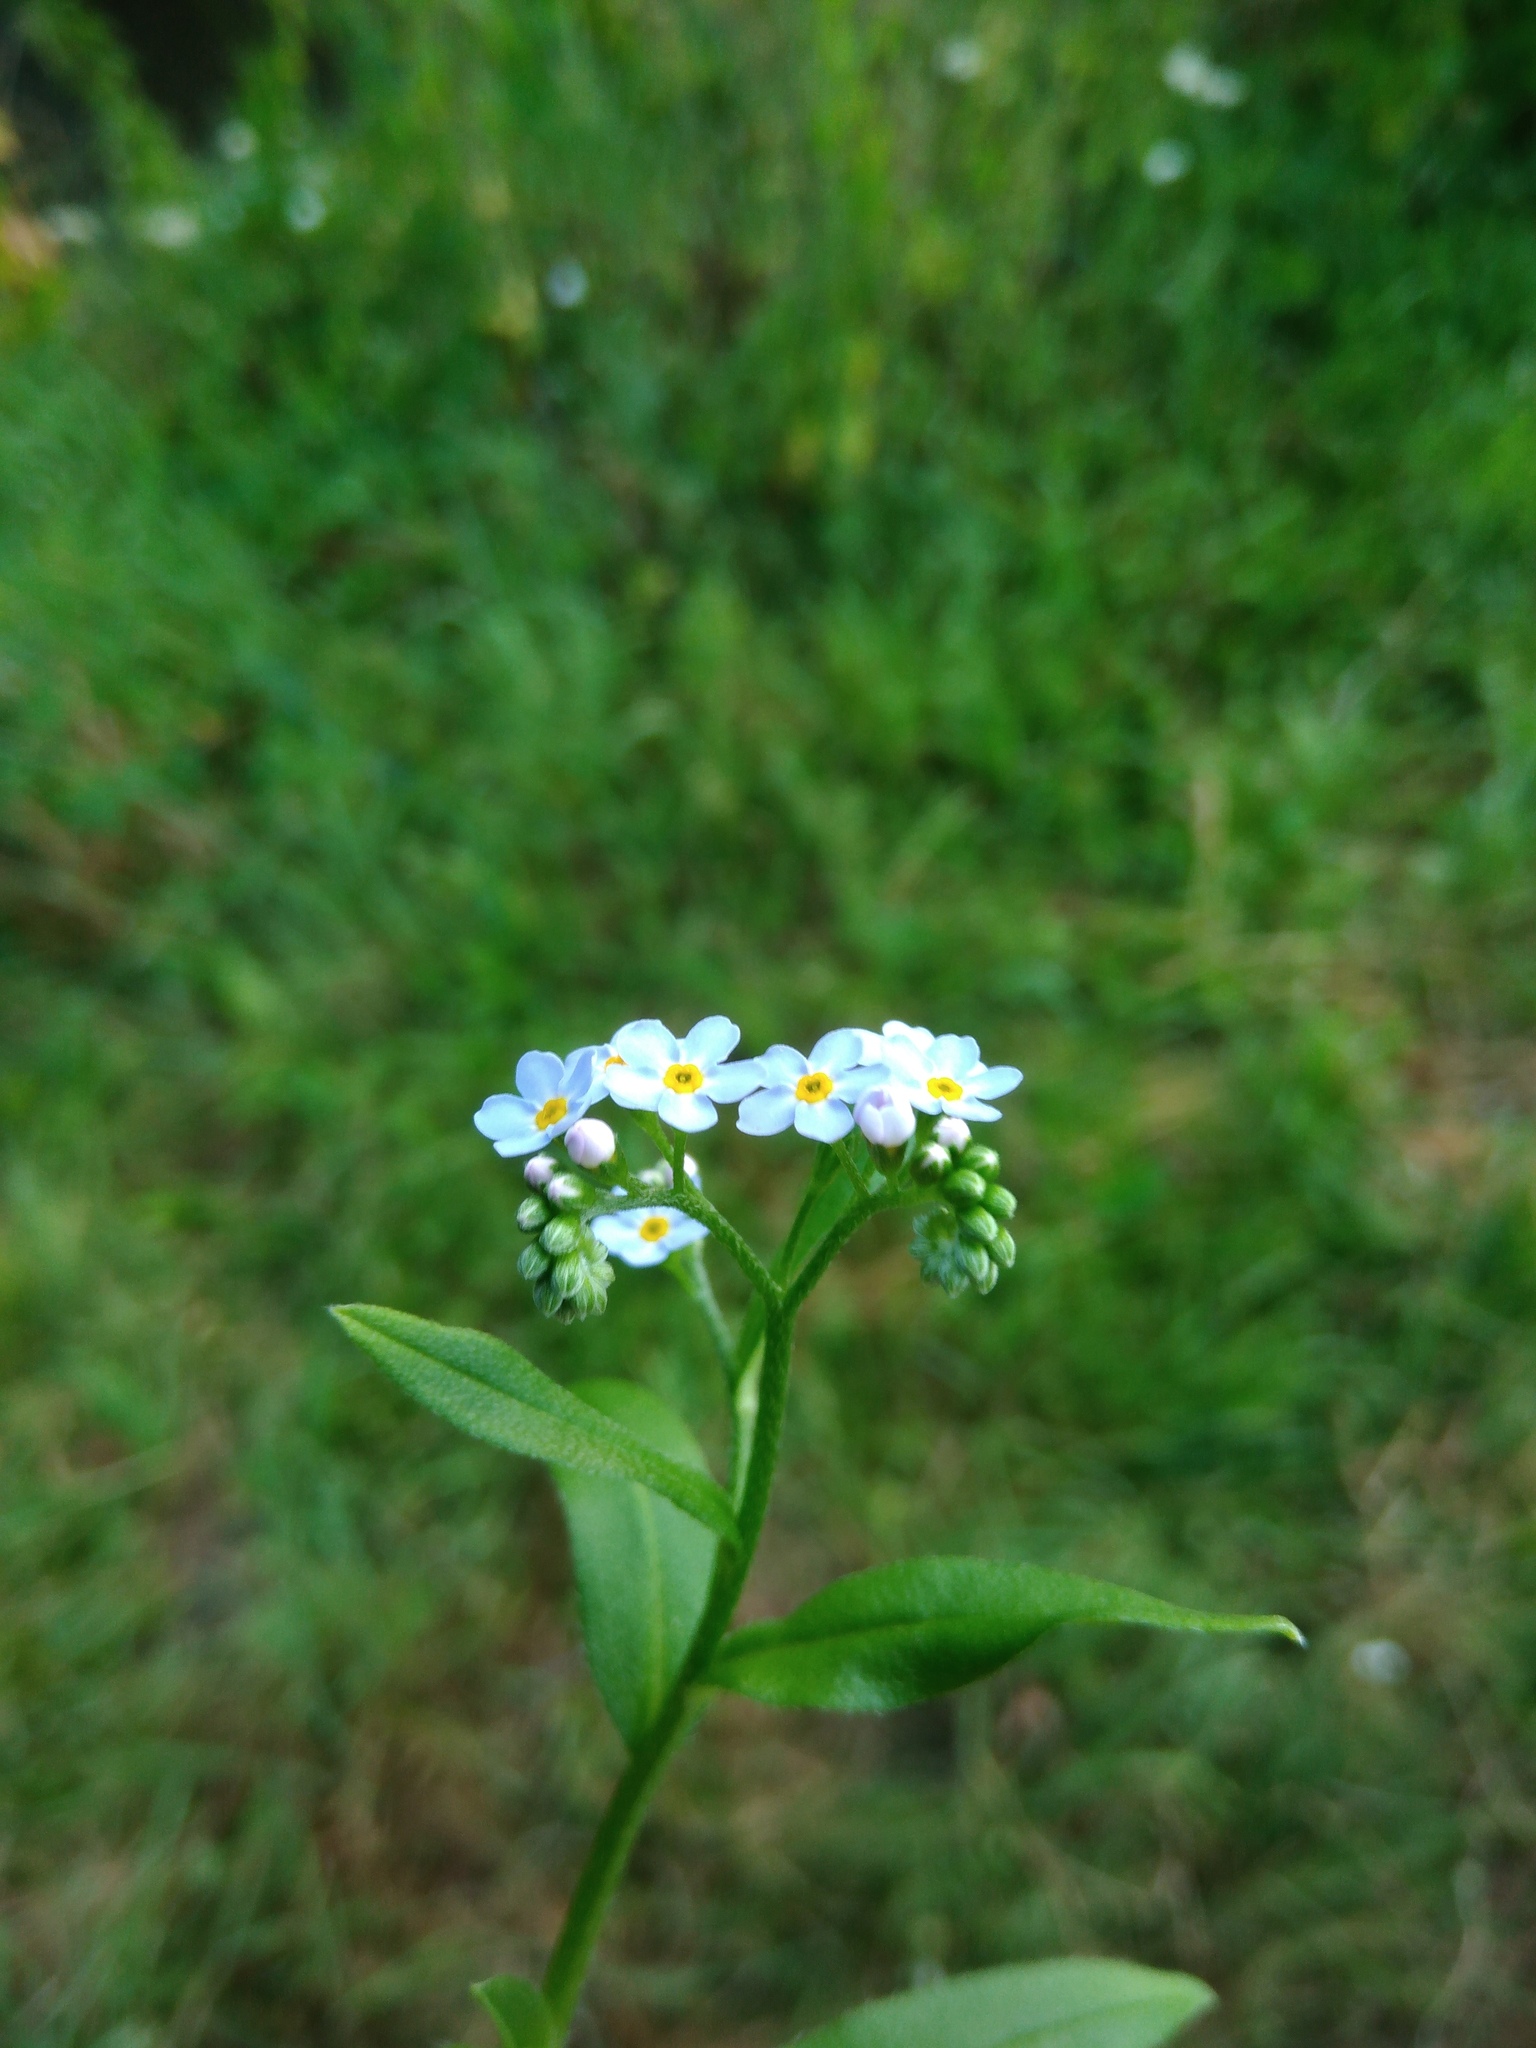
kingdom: Plantae
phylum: Tracheophyta
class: Magnoliopsida
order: Boraginales
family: Boraginaceae
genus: Myosotis
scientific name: Myosotis scorpioides
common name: Water forget-me-not
